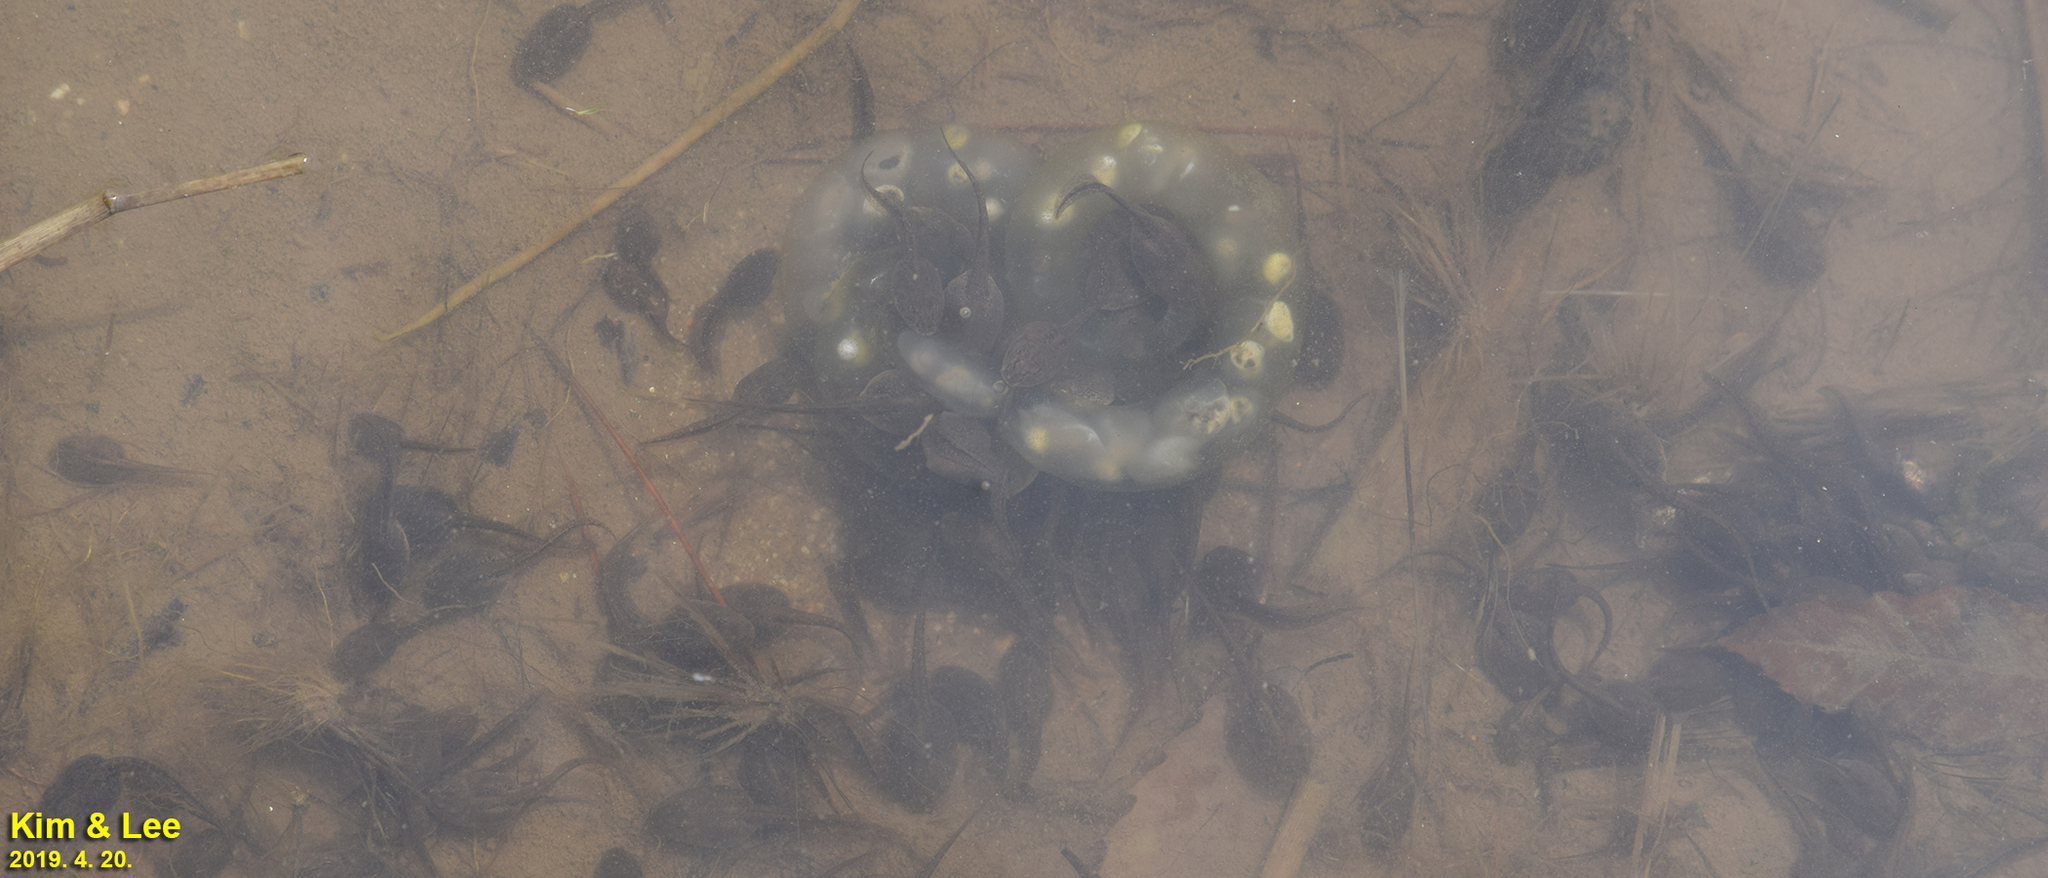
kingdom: Animalia
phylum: Chordata
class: Amphibia
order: Anura
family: Ranidae
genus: Rana
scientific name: Rana uenoi
